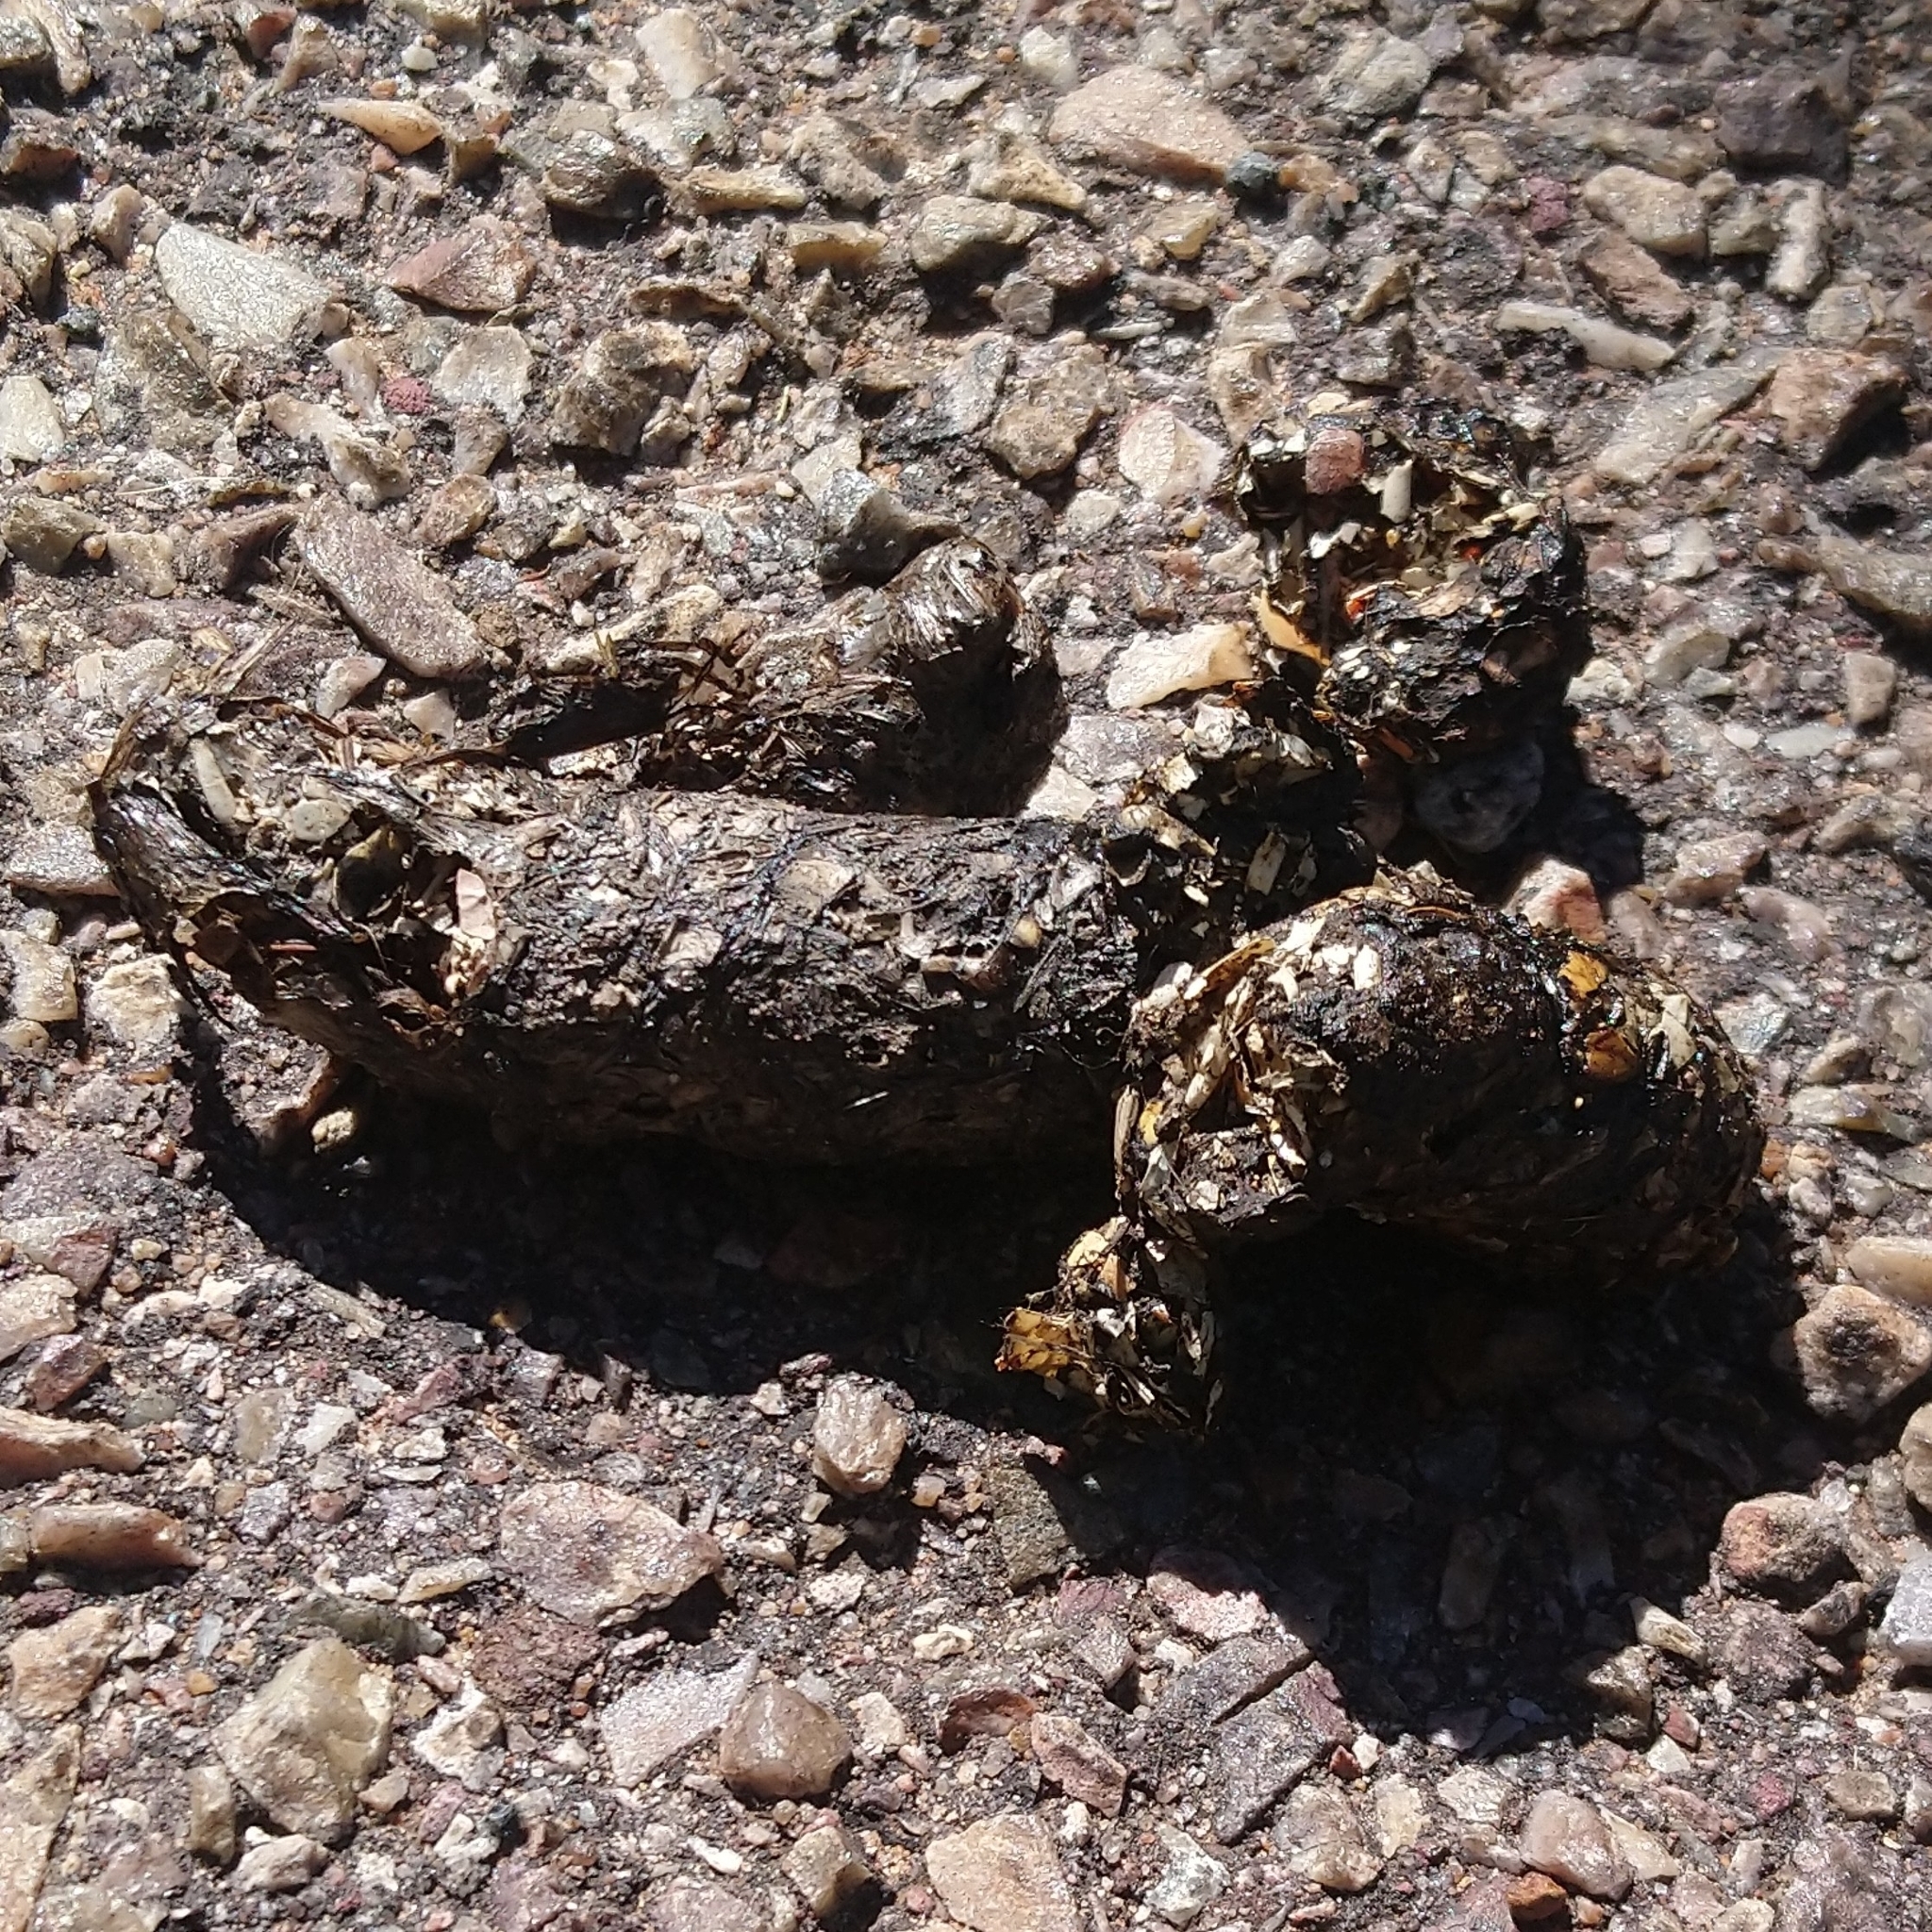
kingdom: Animalia
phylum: Chordata
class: Mammalia
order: Carnivora
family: Mustelidae
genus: Aonyx
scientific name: Aonyx capensis
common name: African clawless otter
